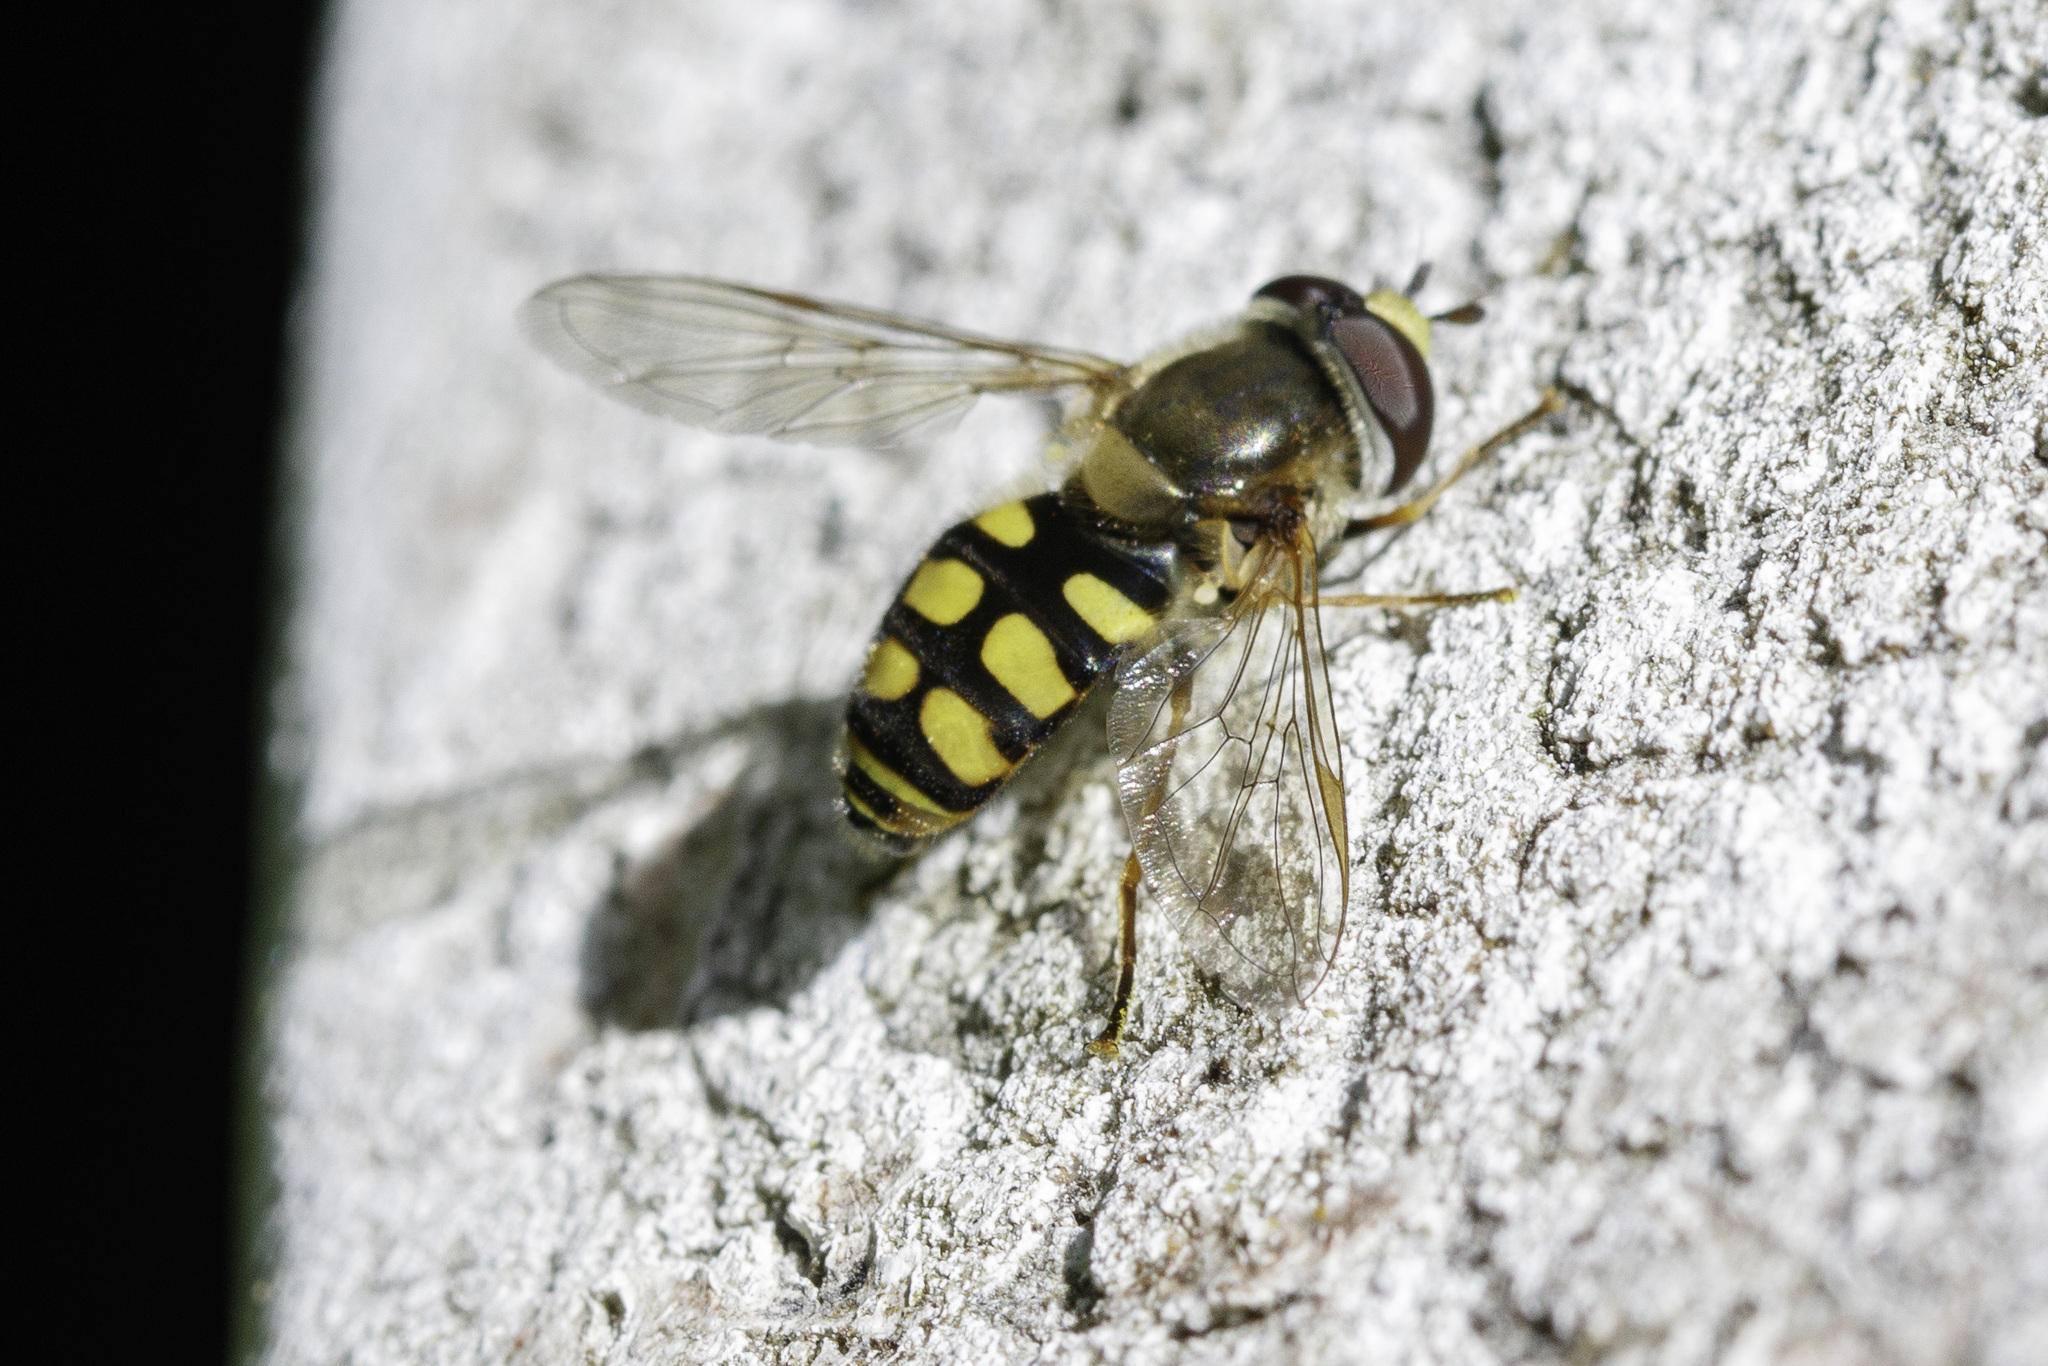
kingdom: Animalia
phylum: Arthropoda
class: Insecta
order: Diptera
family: Syrphidae
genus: Eupeodes
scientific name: Eupeodes corollae
